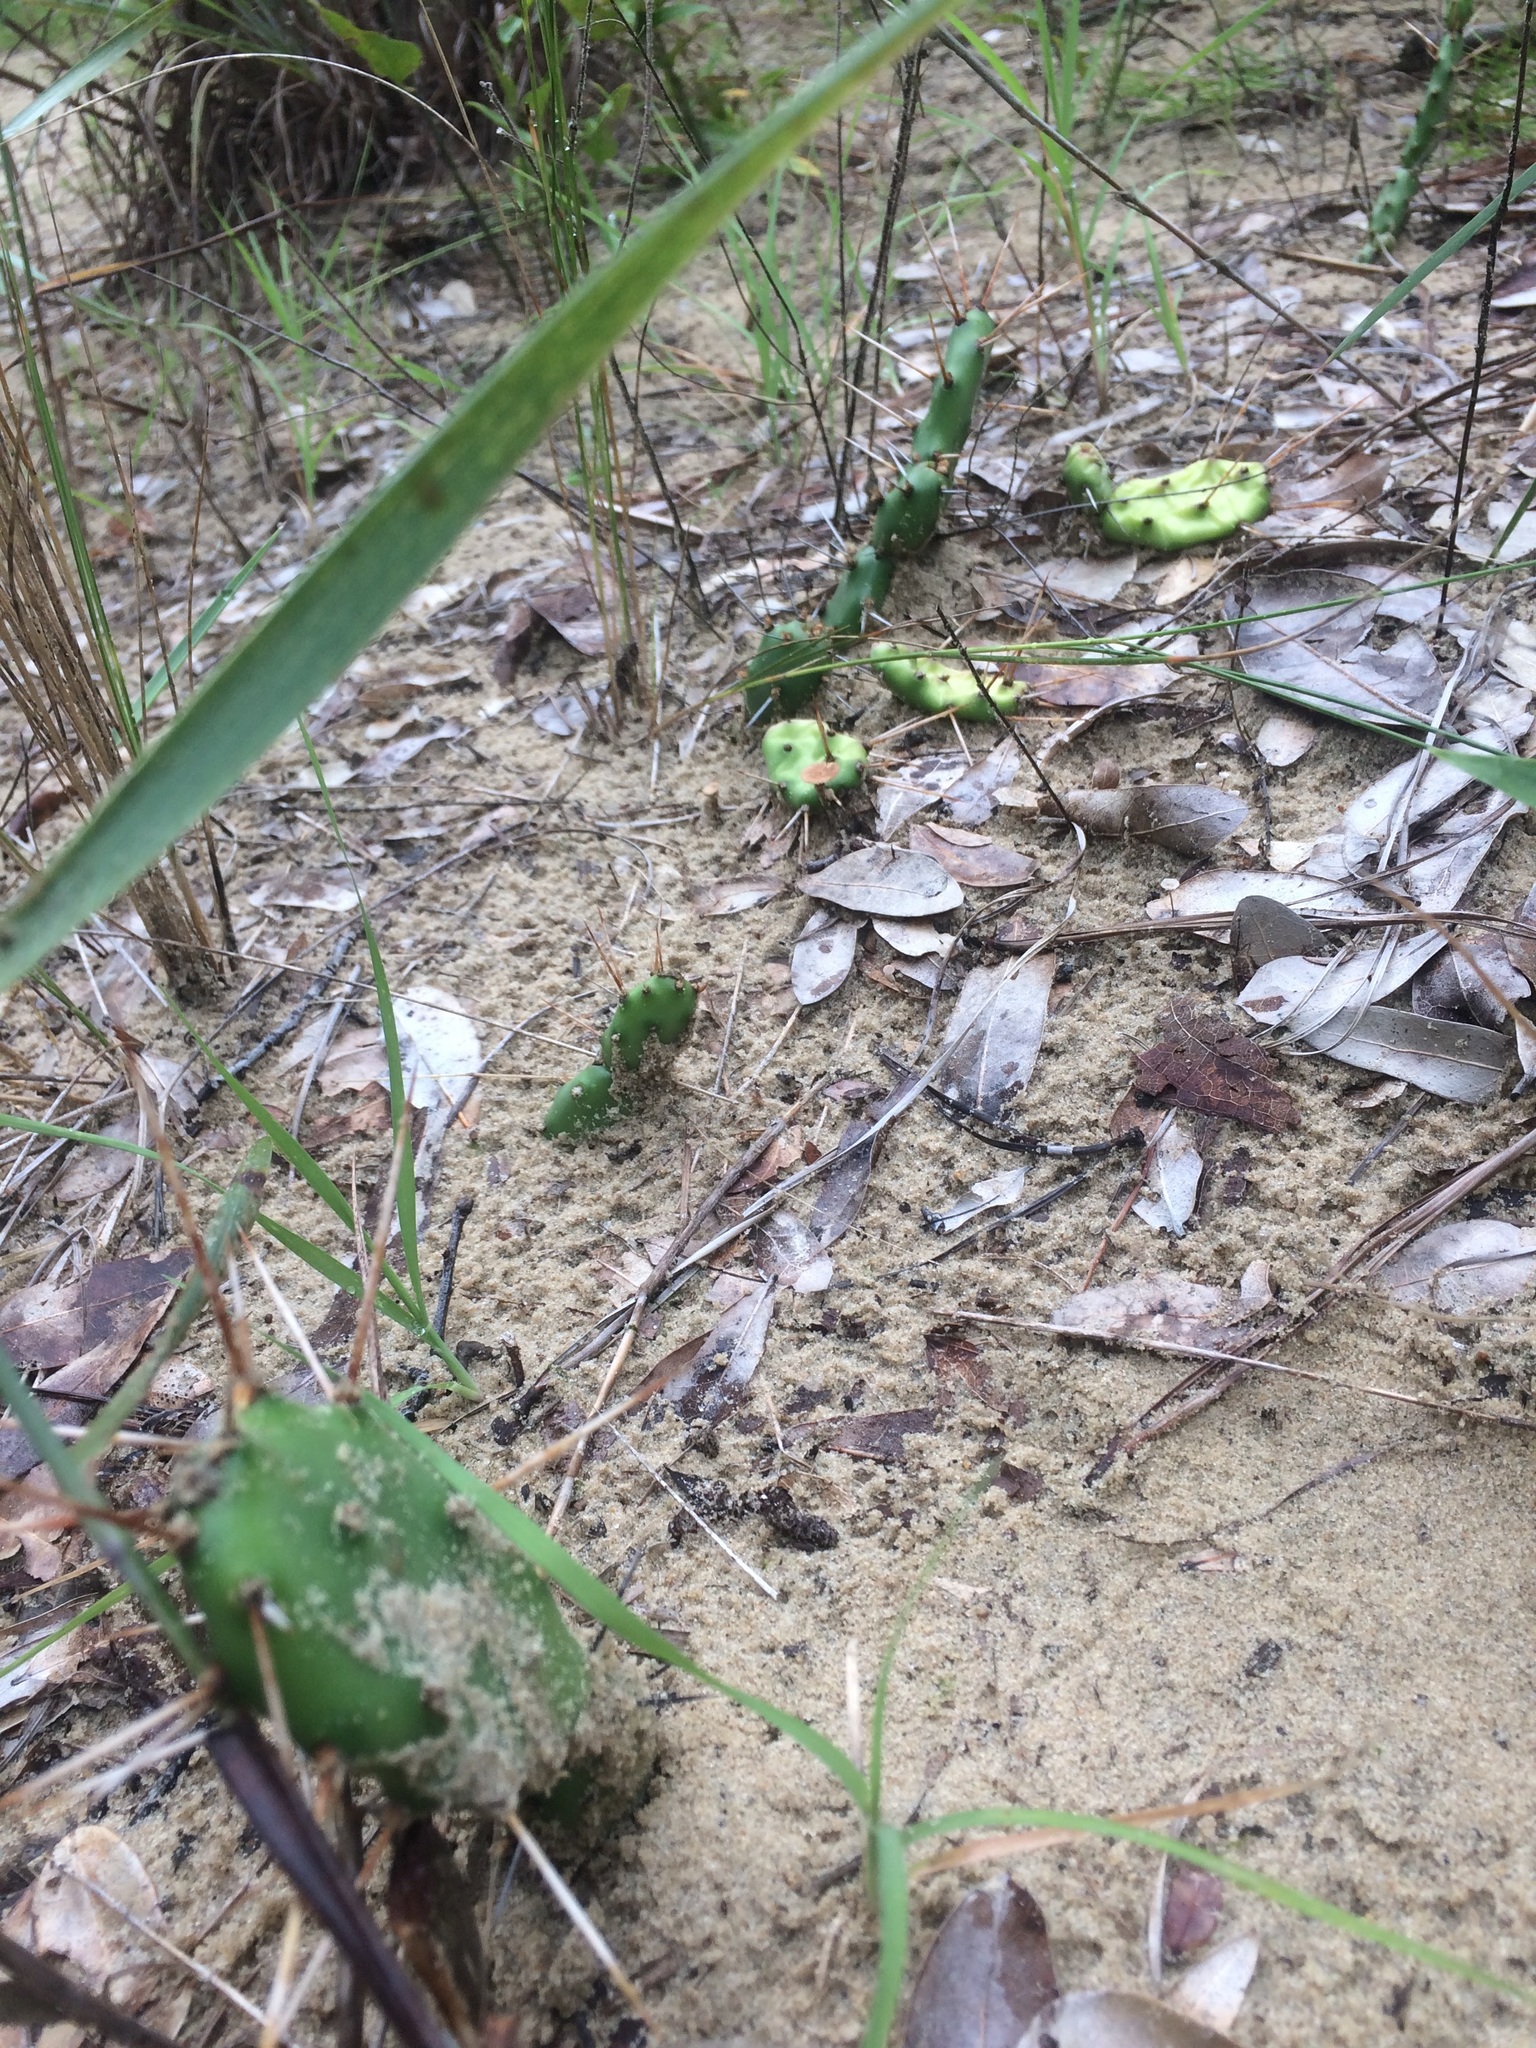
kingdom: Plantae
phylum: Tracheophyta
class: Magnoliopsida
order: Caryophyllales
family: Cactaceae
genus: Opuntia
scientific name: Opuntia drummondii
